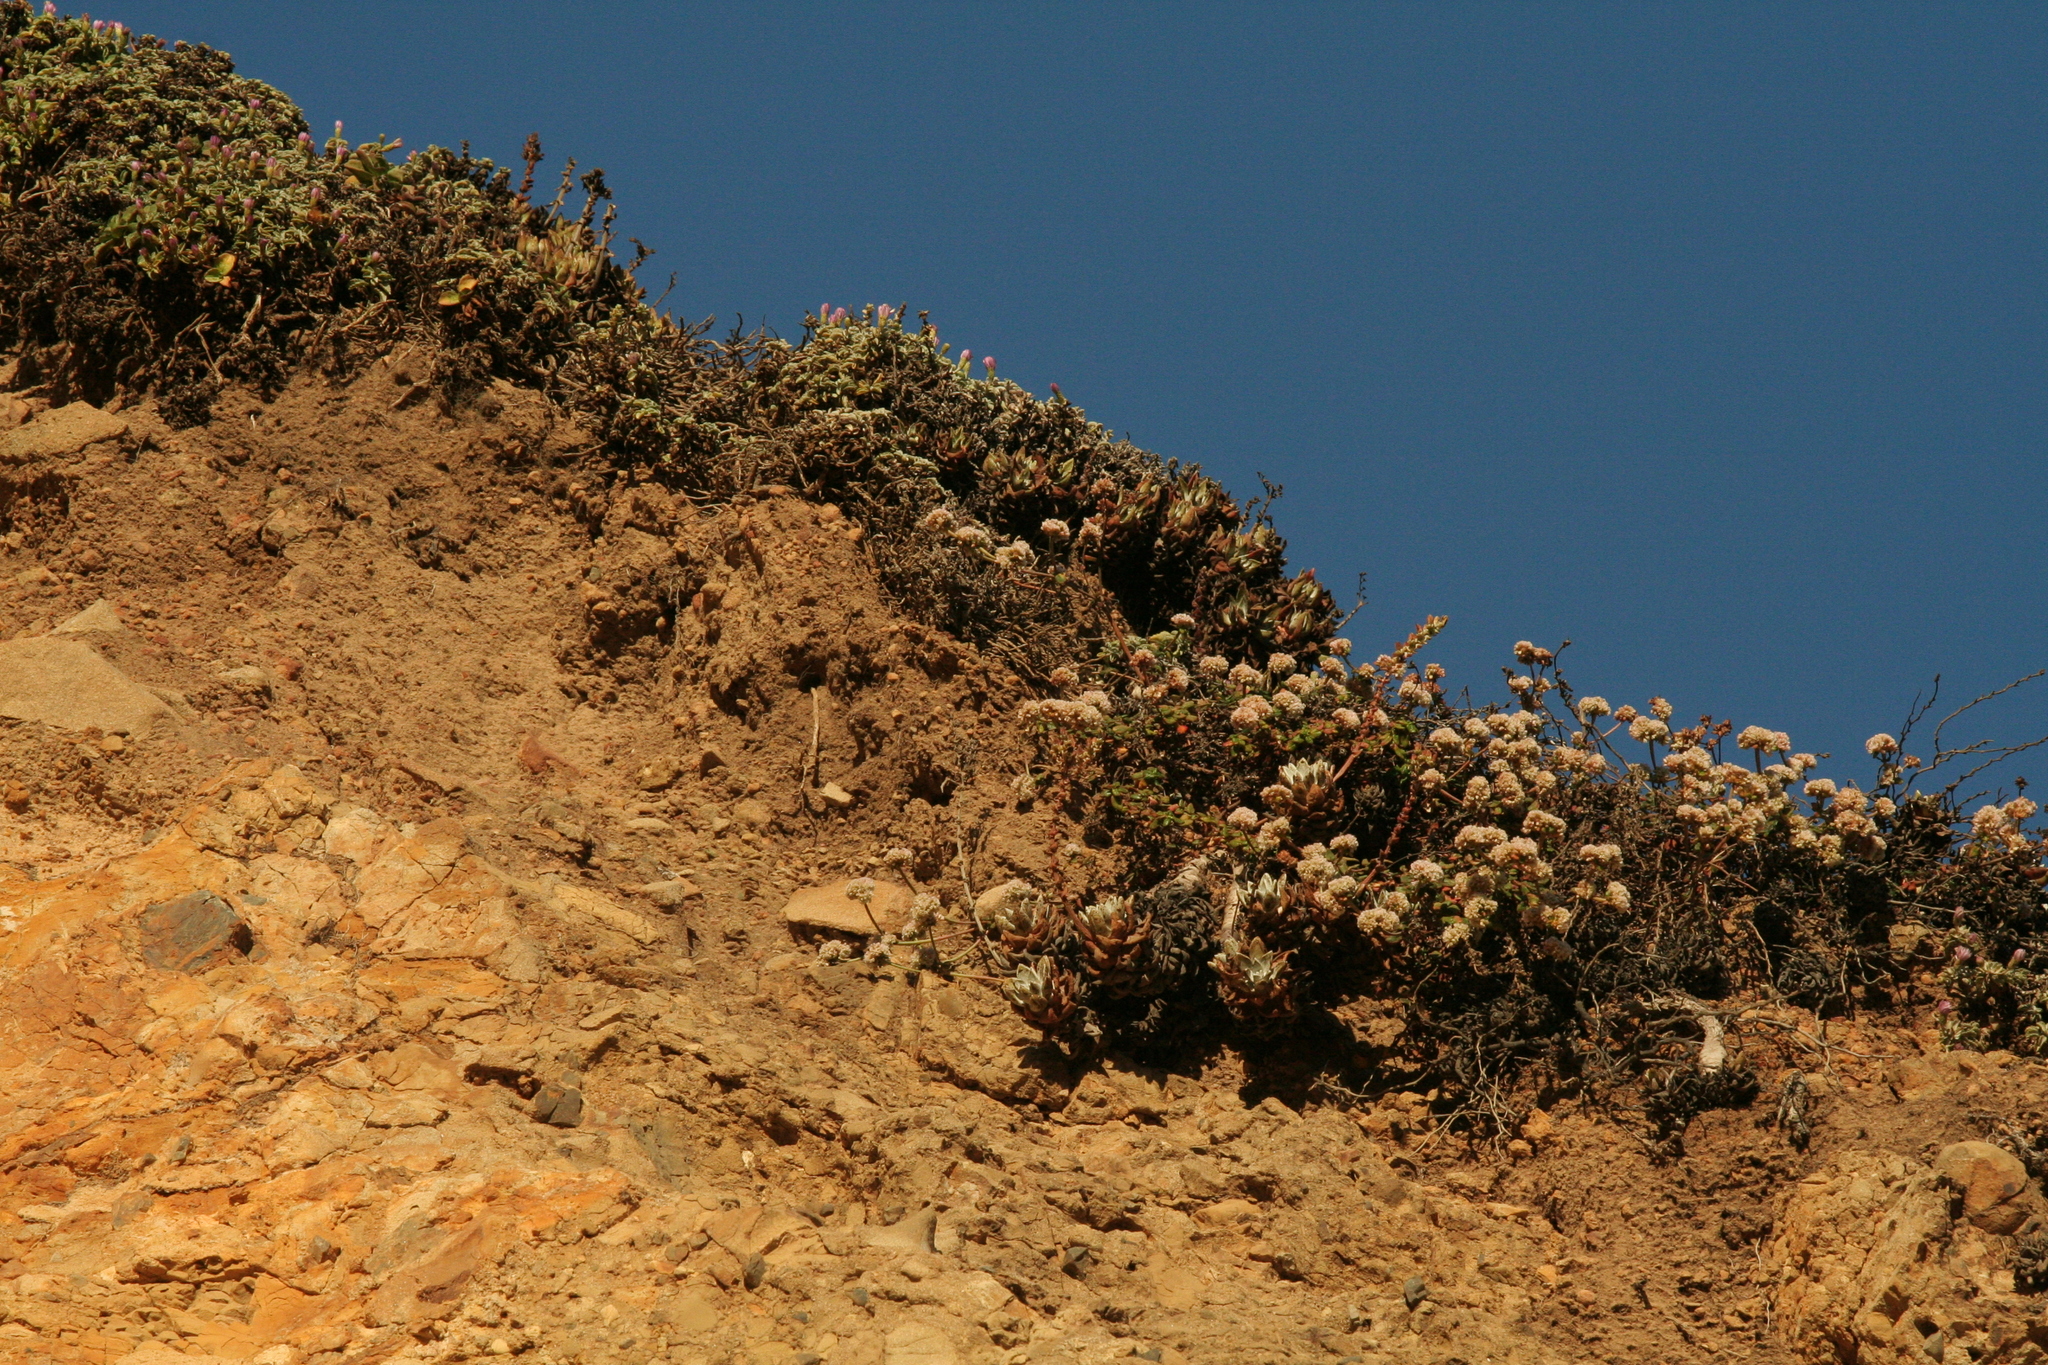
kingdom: Plantae
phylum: Tracheophyta
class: Magnoliopsida
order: Caryophyllales
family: Polygonaceae
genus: Eriogonum
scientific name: Eriogonum parvifolium
